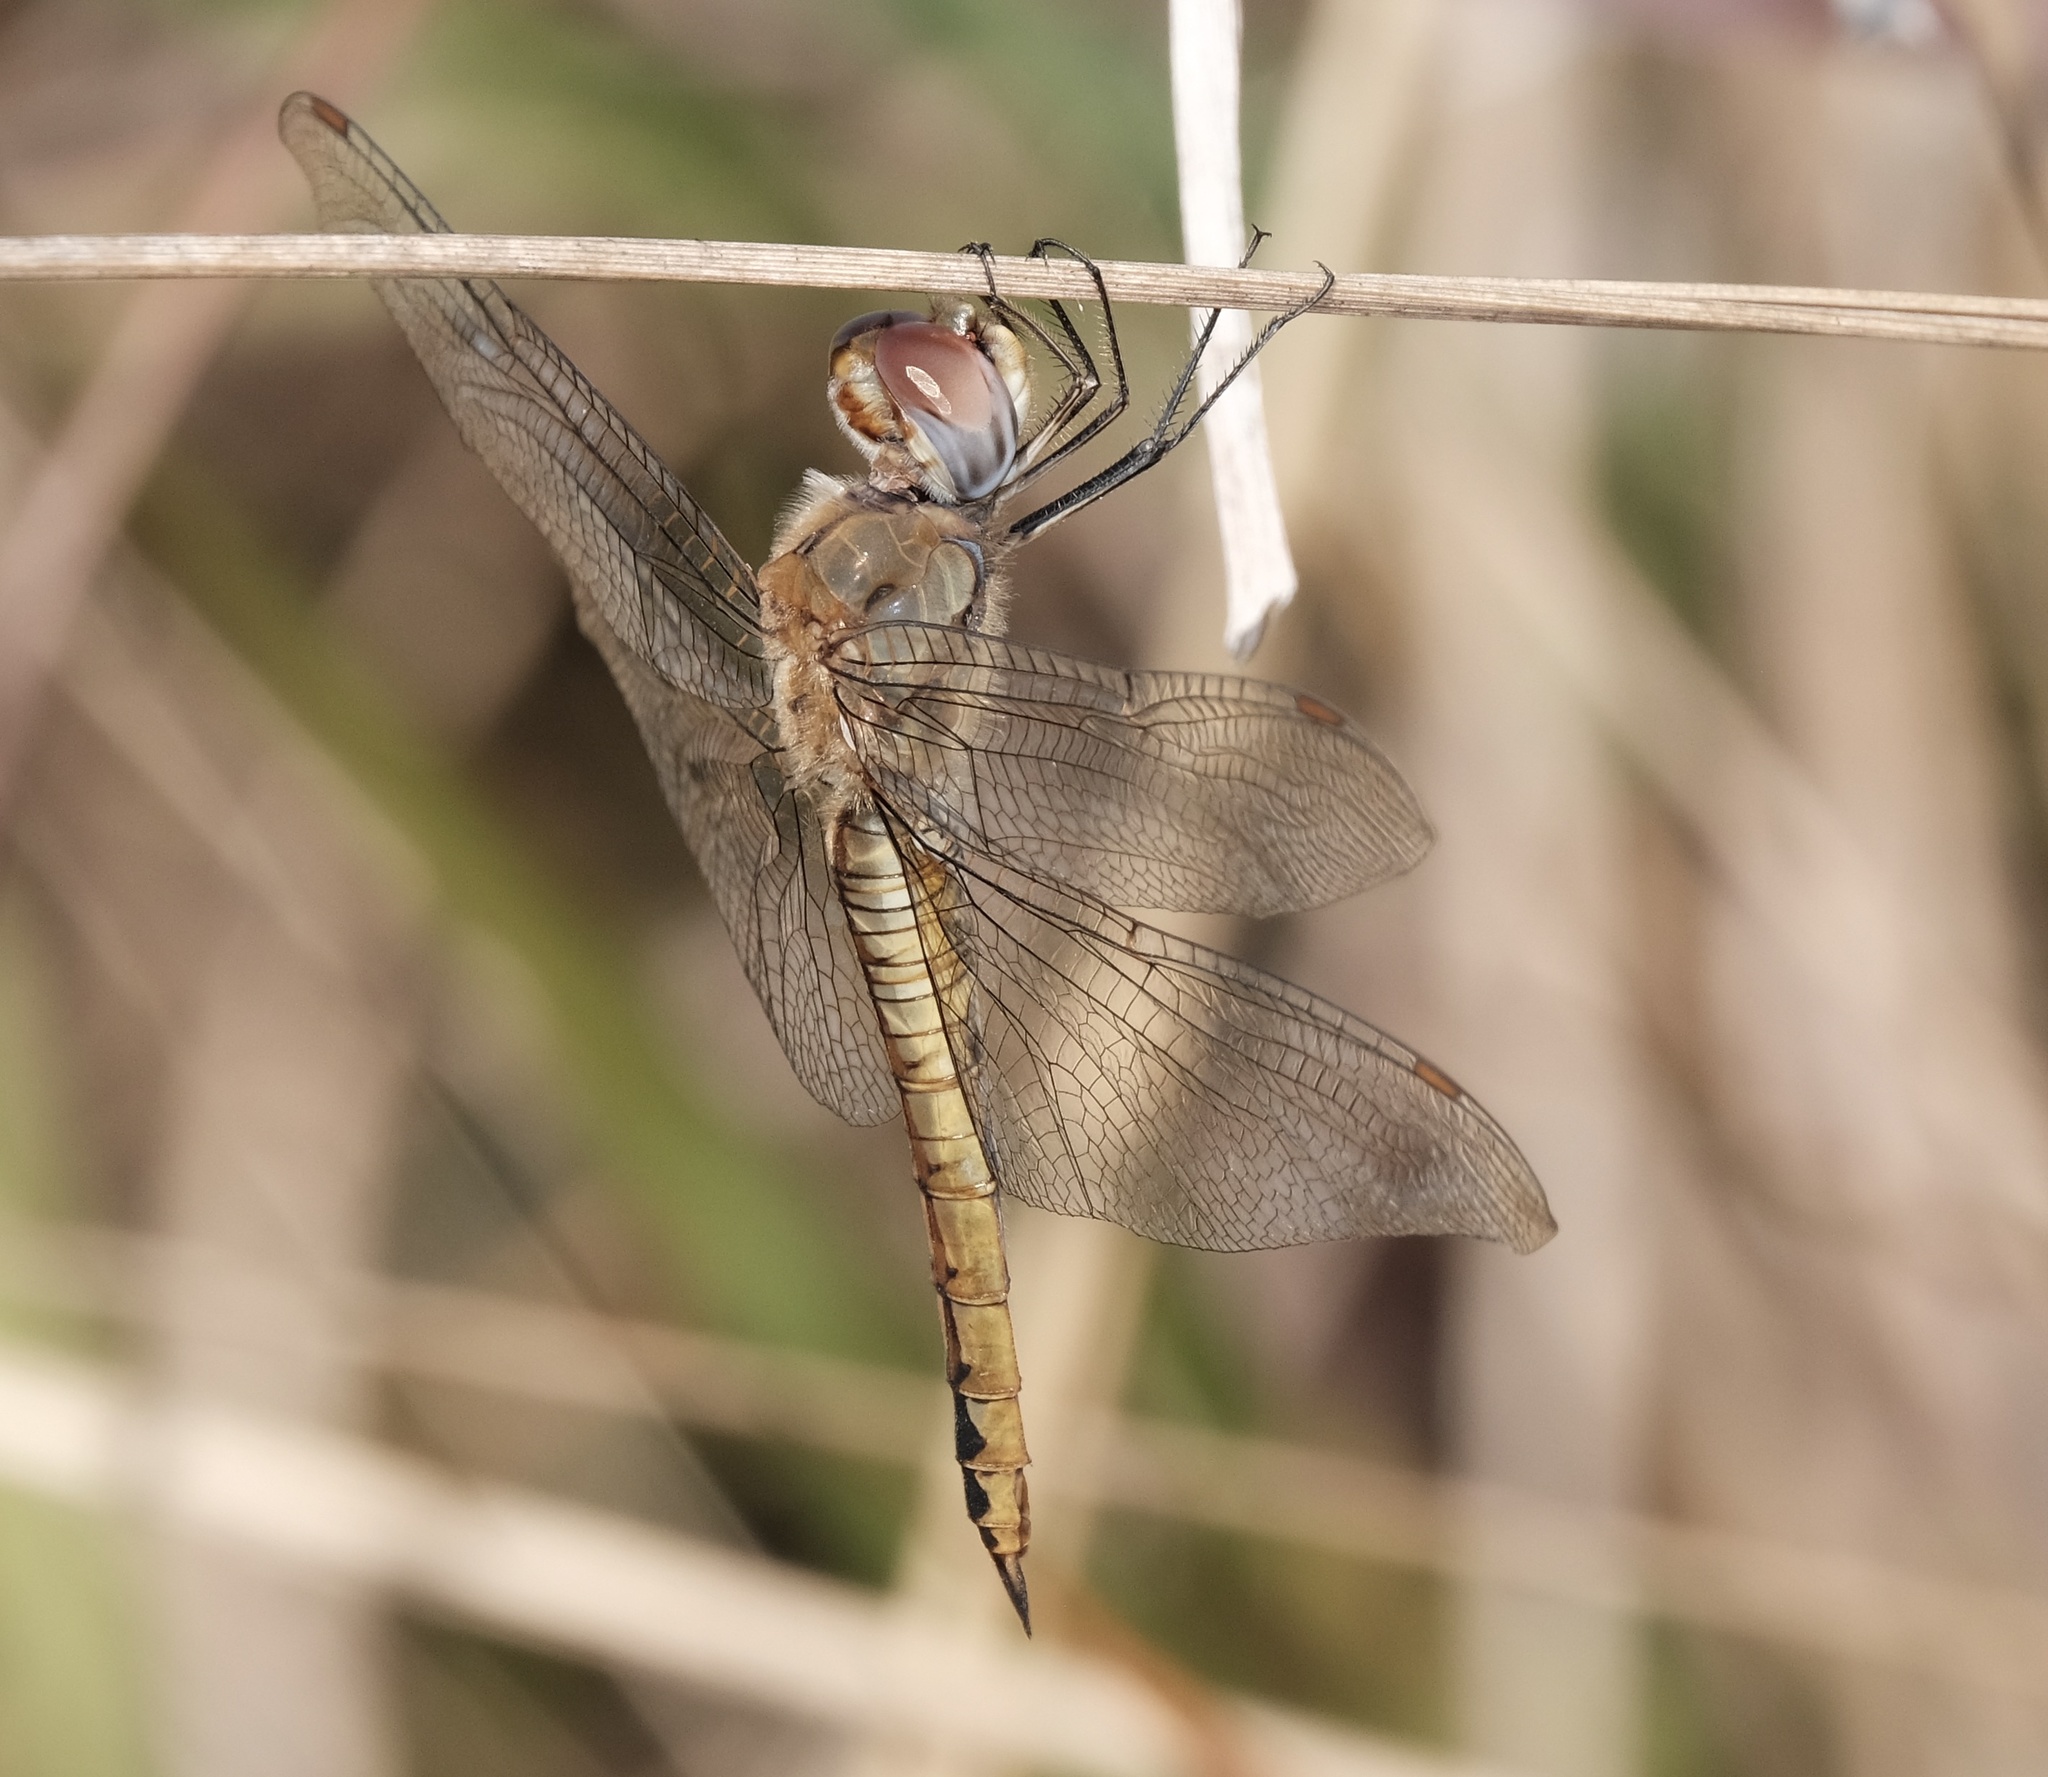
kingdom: Animalia
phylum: Arthropoda
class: Insecta
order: Odonata
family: Libellulidae
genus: Pantala
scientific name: Pantala flavescens
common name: Wandering glider
